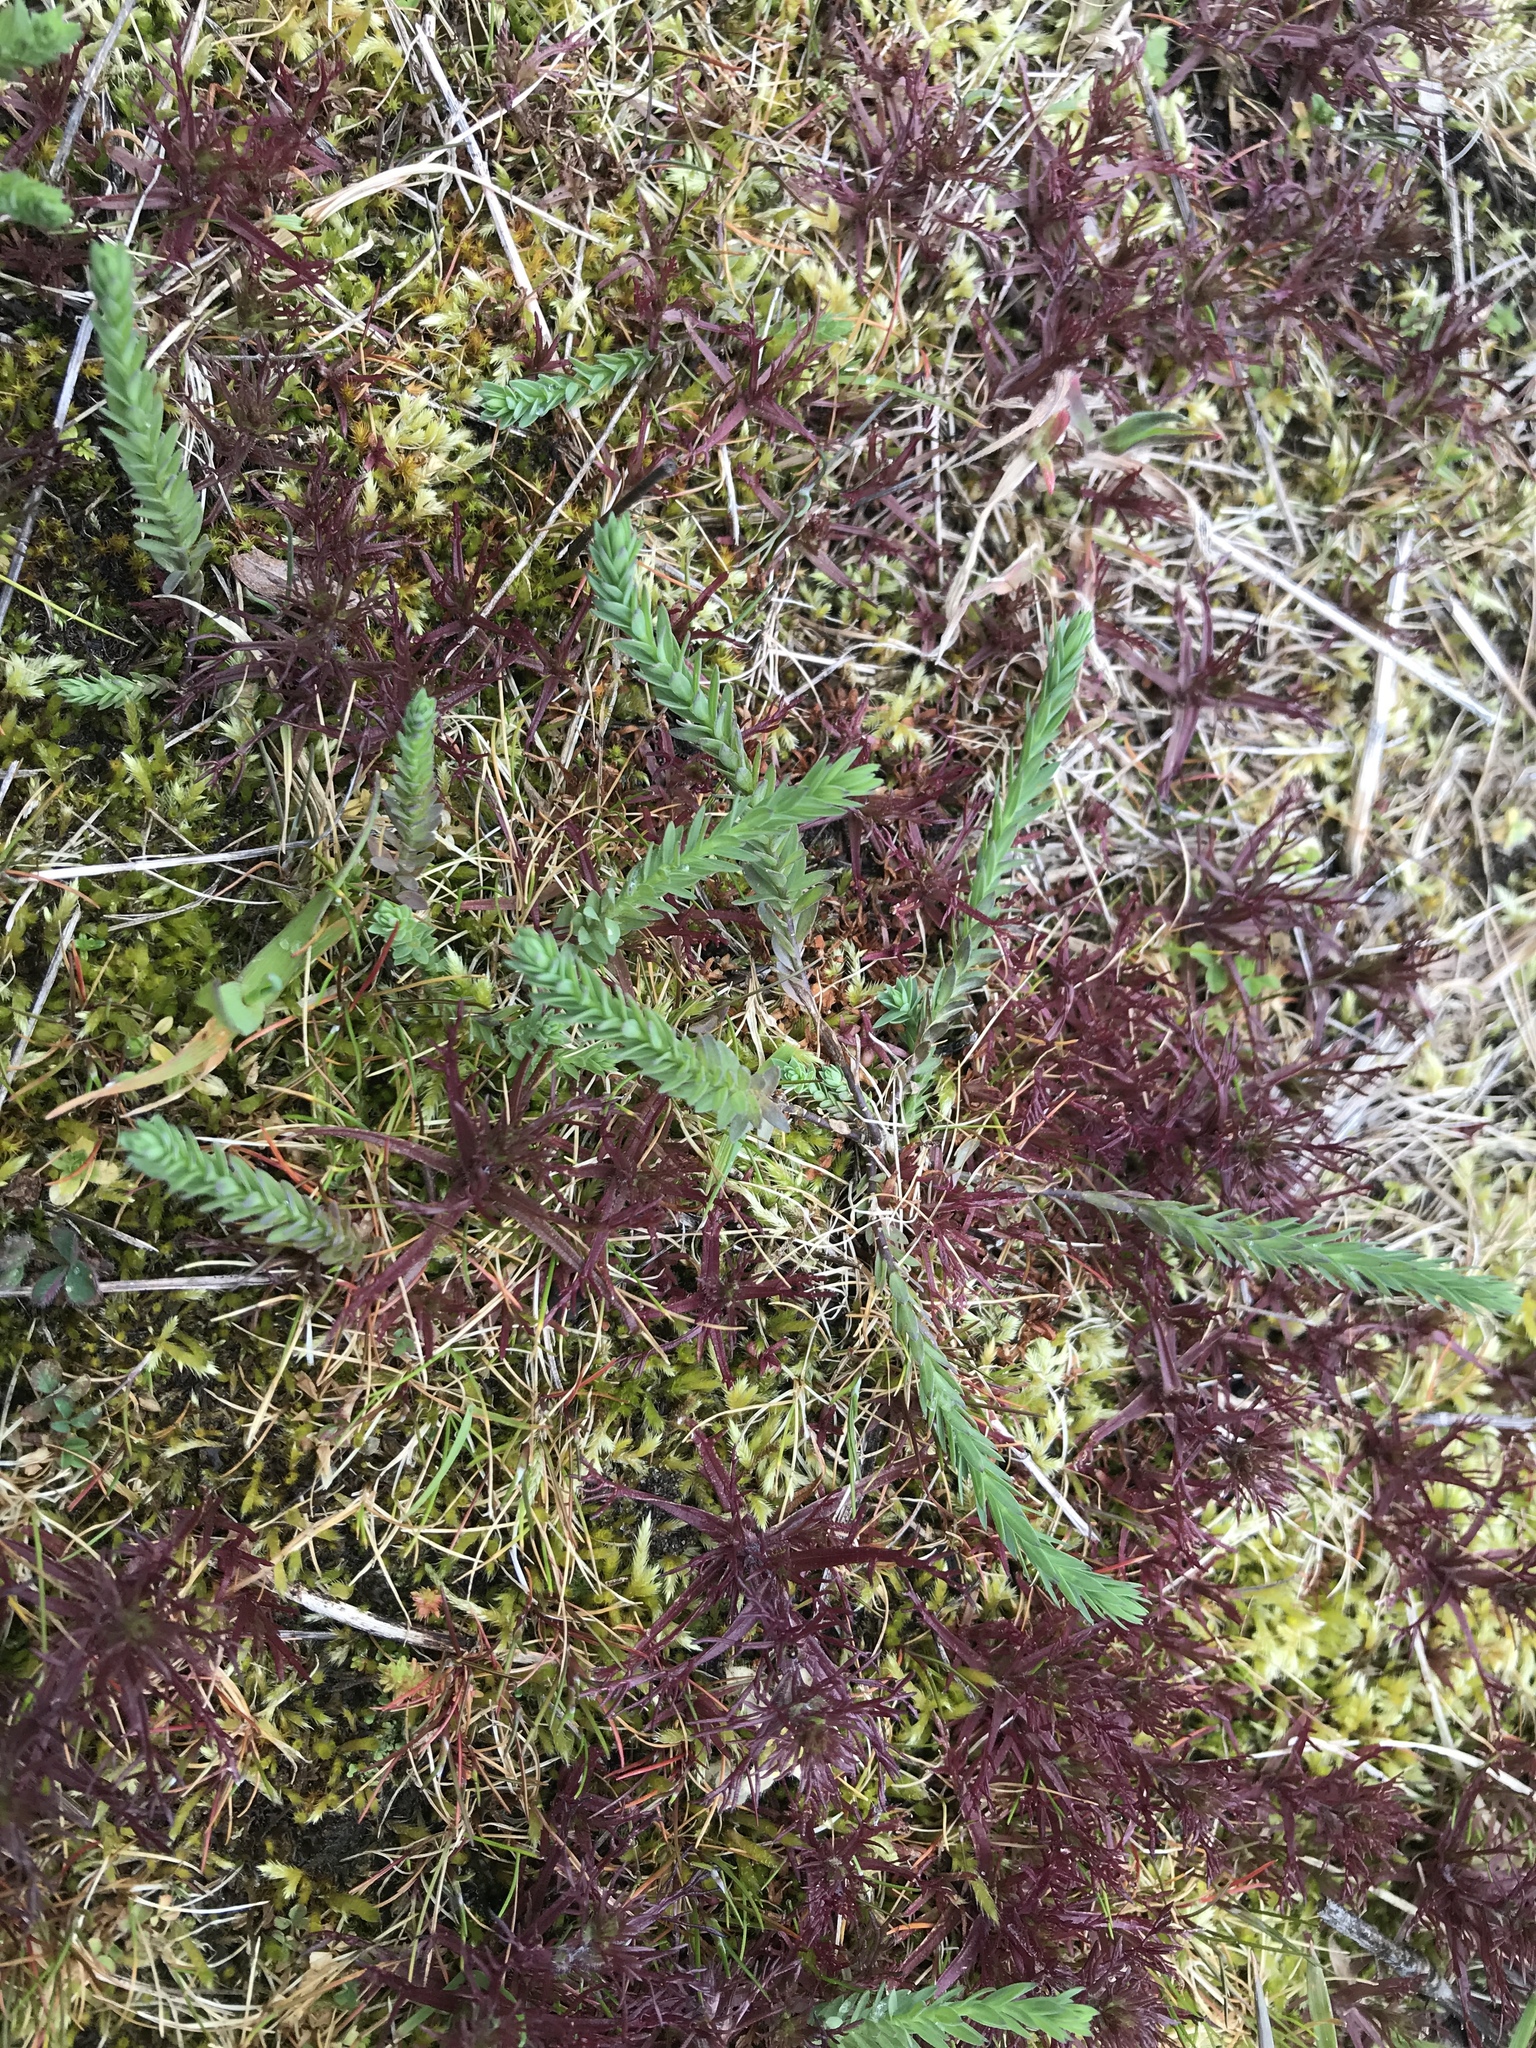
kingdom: Plantae
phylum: Tracheophyta
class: Magnoliopsida
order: Malpighiales
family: Linaceae
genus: Linum
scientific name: Linum bienne
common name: Pale flax
